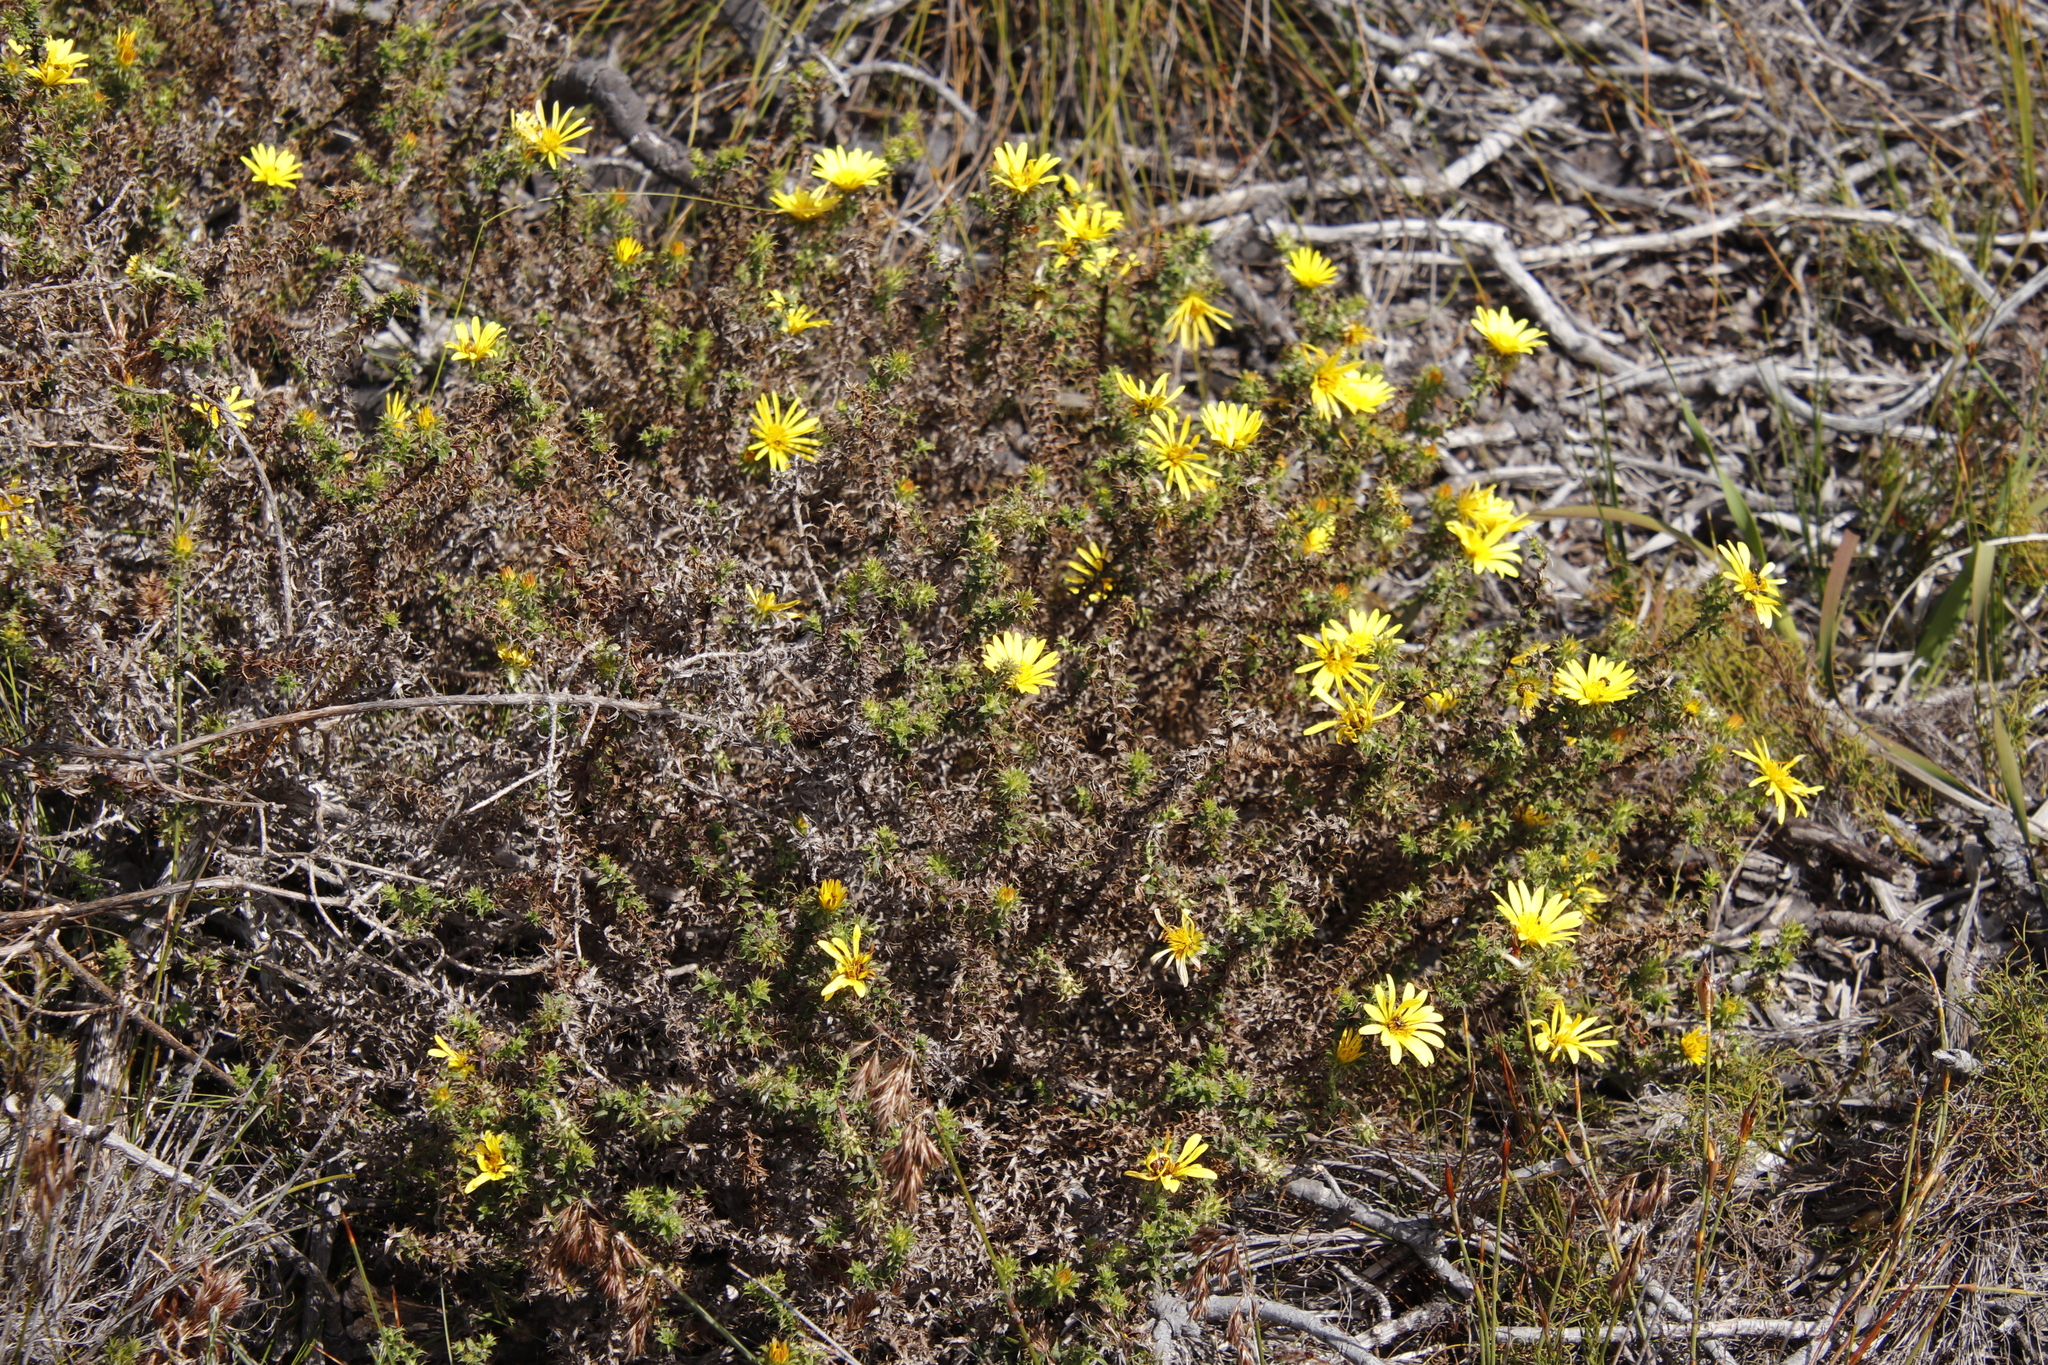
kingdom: Plantae
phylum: Tracheophyta
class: Magnoliopsida
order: Asterales
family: Asteraceae
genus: Cullumia
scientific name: Cullumia setosa
